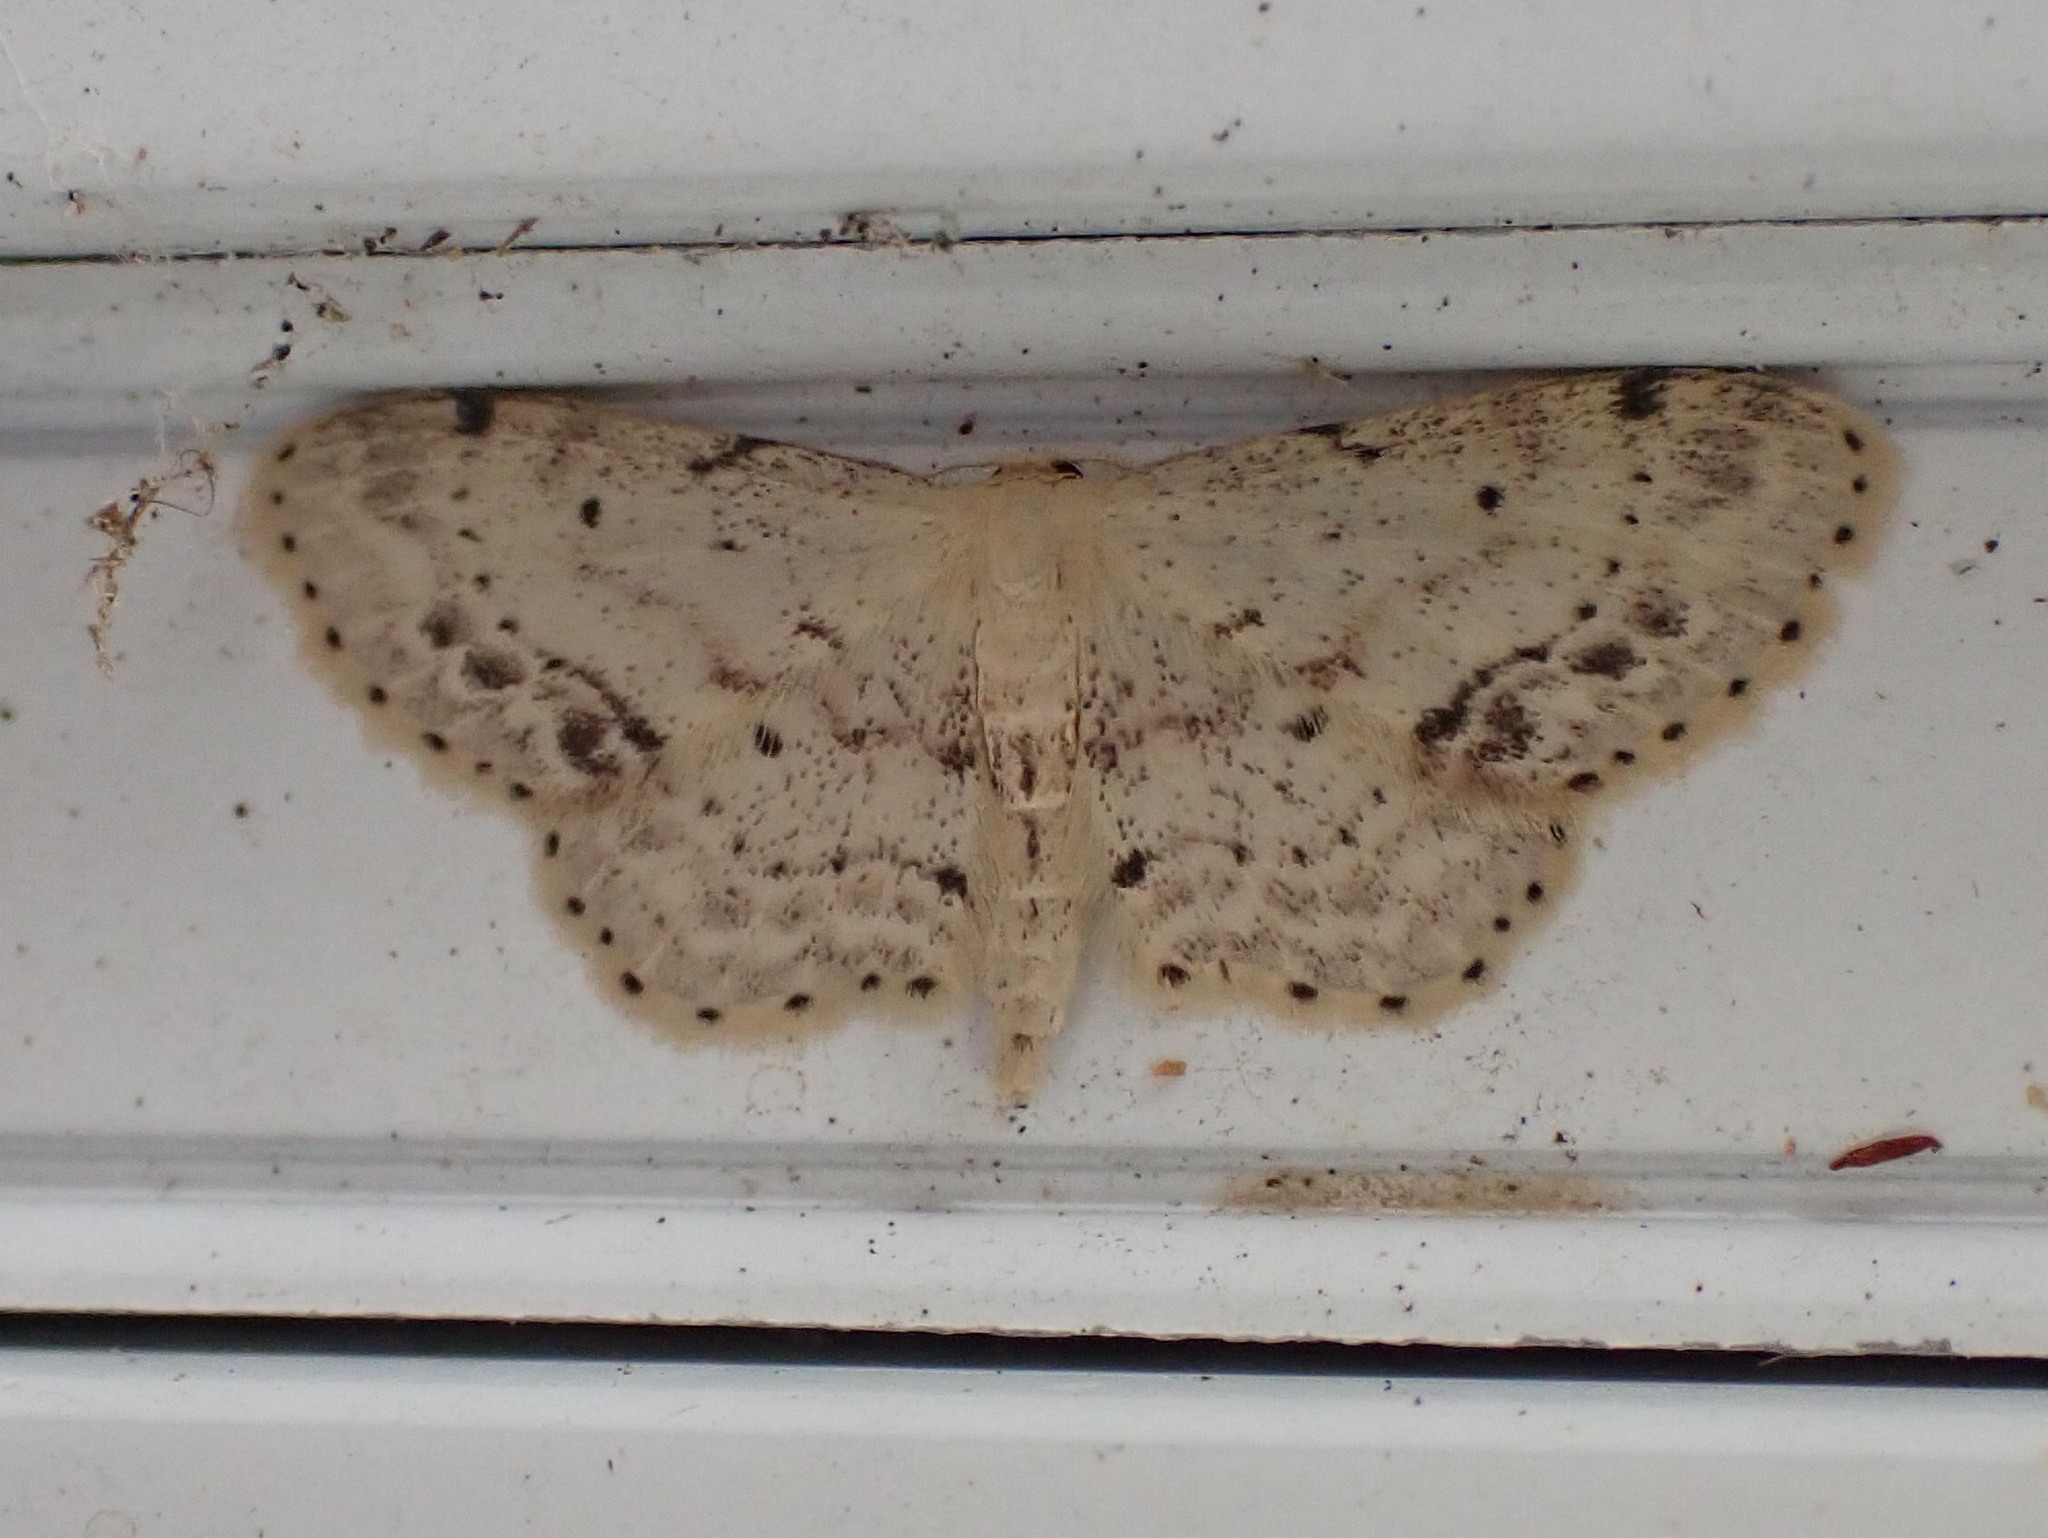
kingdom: Animalia
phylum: Arthropoda
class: Insecta
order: Lepidoptera
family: Geometridae
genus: Idaea
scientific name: Idaea dimidiata
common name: Single-dotted wave
